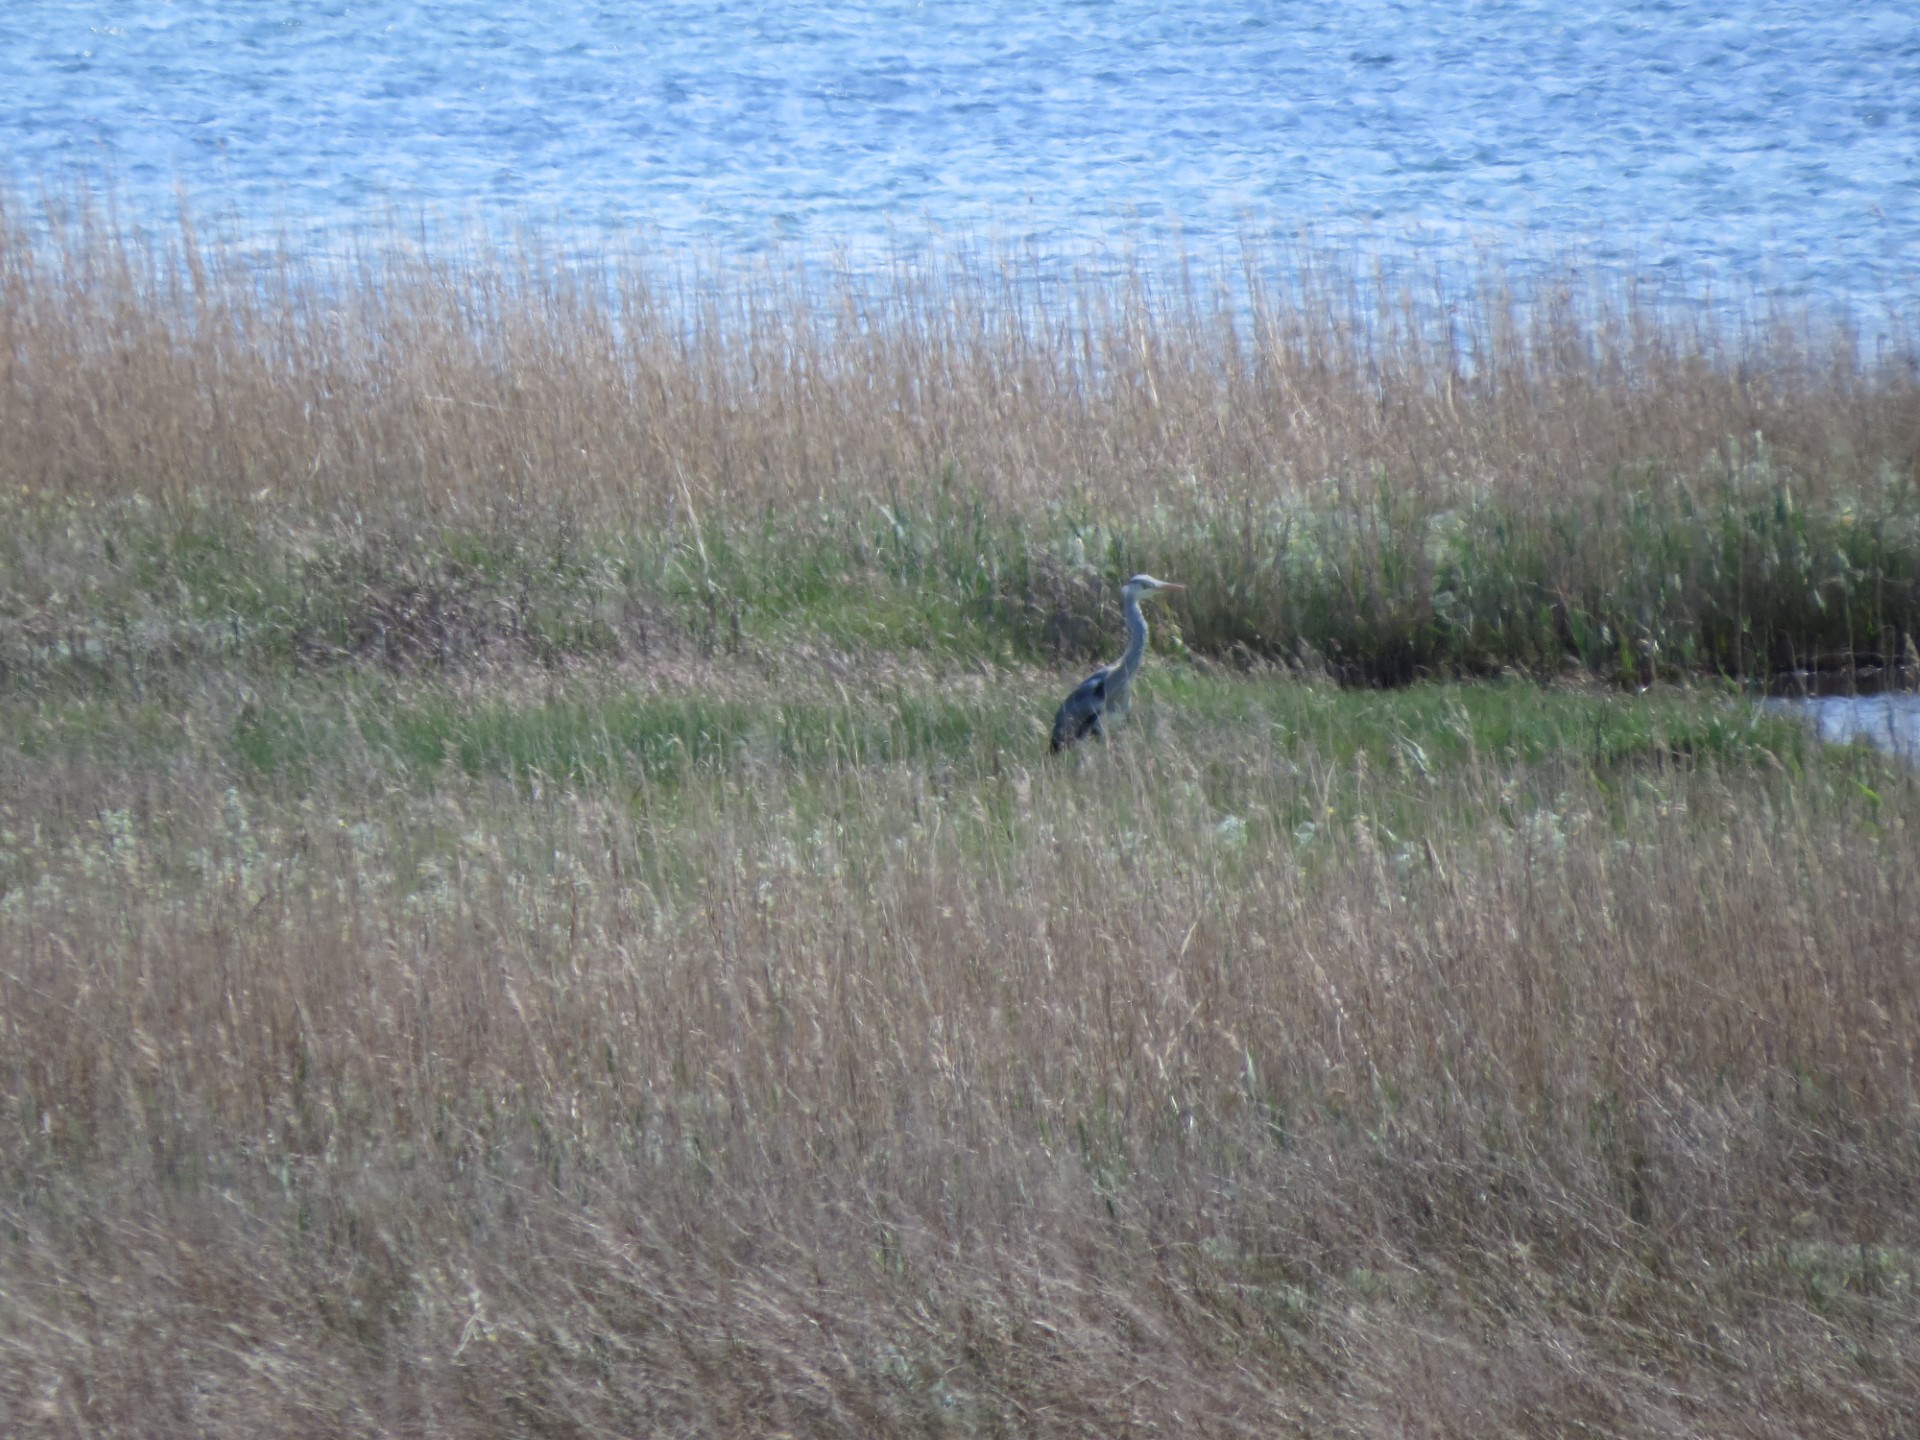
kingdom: Animalia
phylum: Chordata
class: Aves
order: Pelecaniformes
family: Ardeidae
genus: Ardea
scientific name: Ardea cinerea
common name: Grey heron
